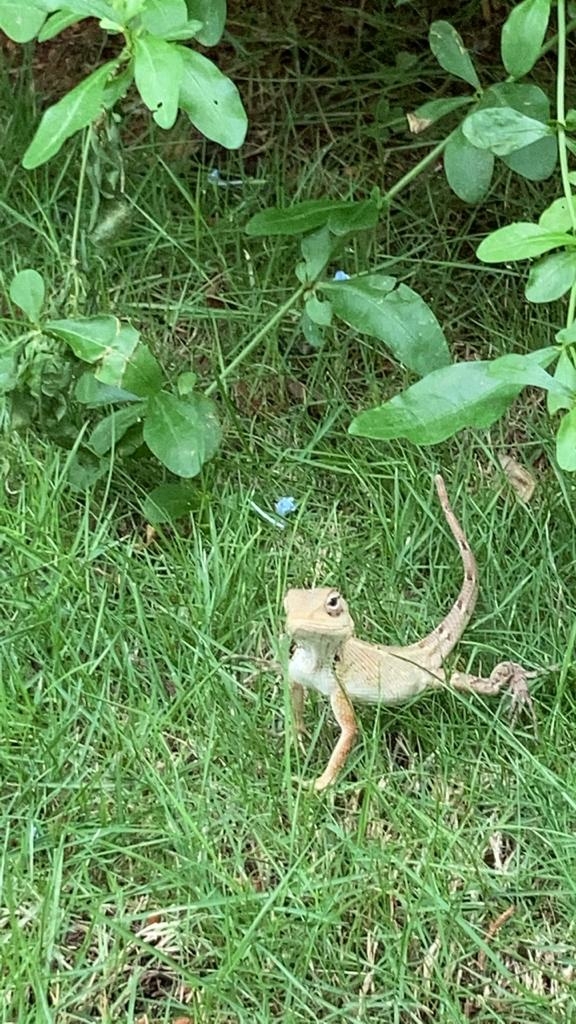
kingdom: Animalia
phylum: Chordata
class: Squamata
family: Agamidae
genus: Calotes
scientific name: Calotes versicolor
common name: Oriental garden lizard
